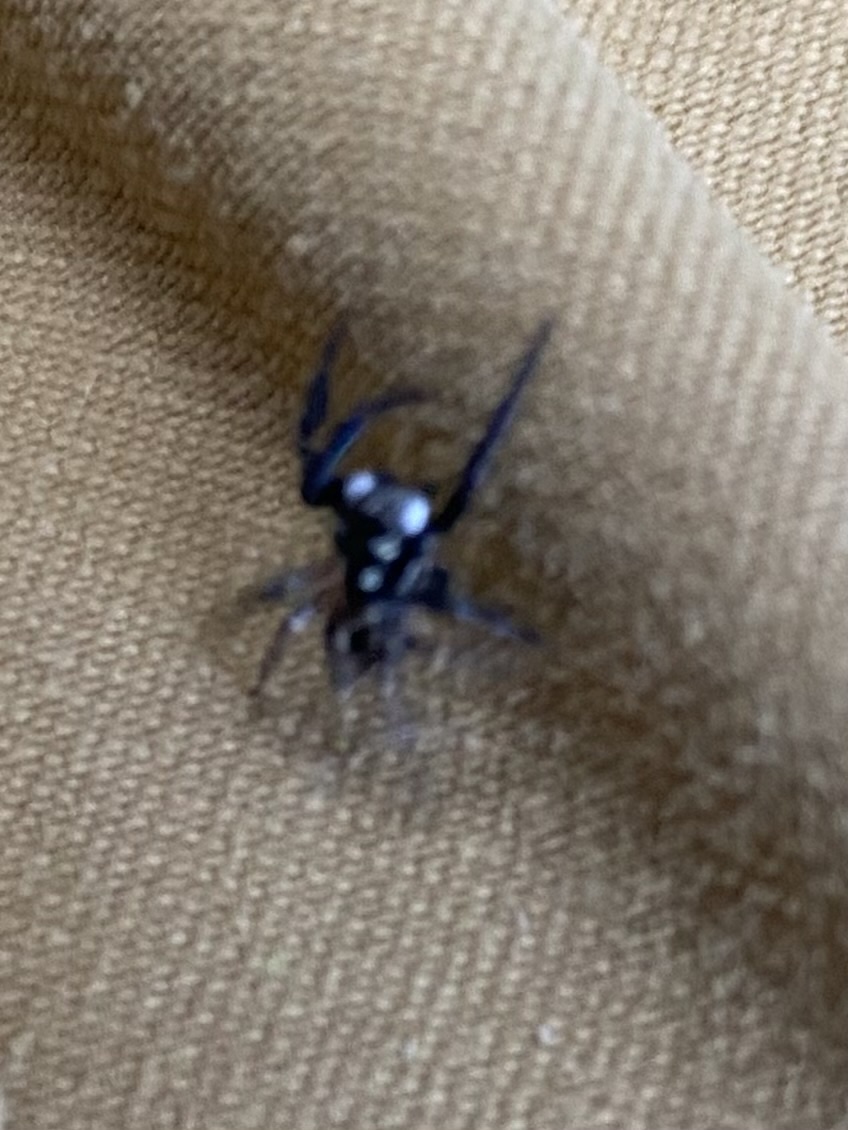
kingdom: Animalia
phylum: Arthropoda
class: Arachnida
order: Araneae
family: Salticidae
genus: Anasaitis
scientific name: Anasaitis canosa
